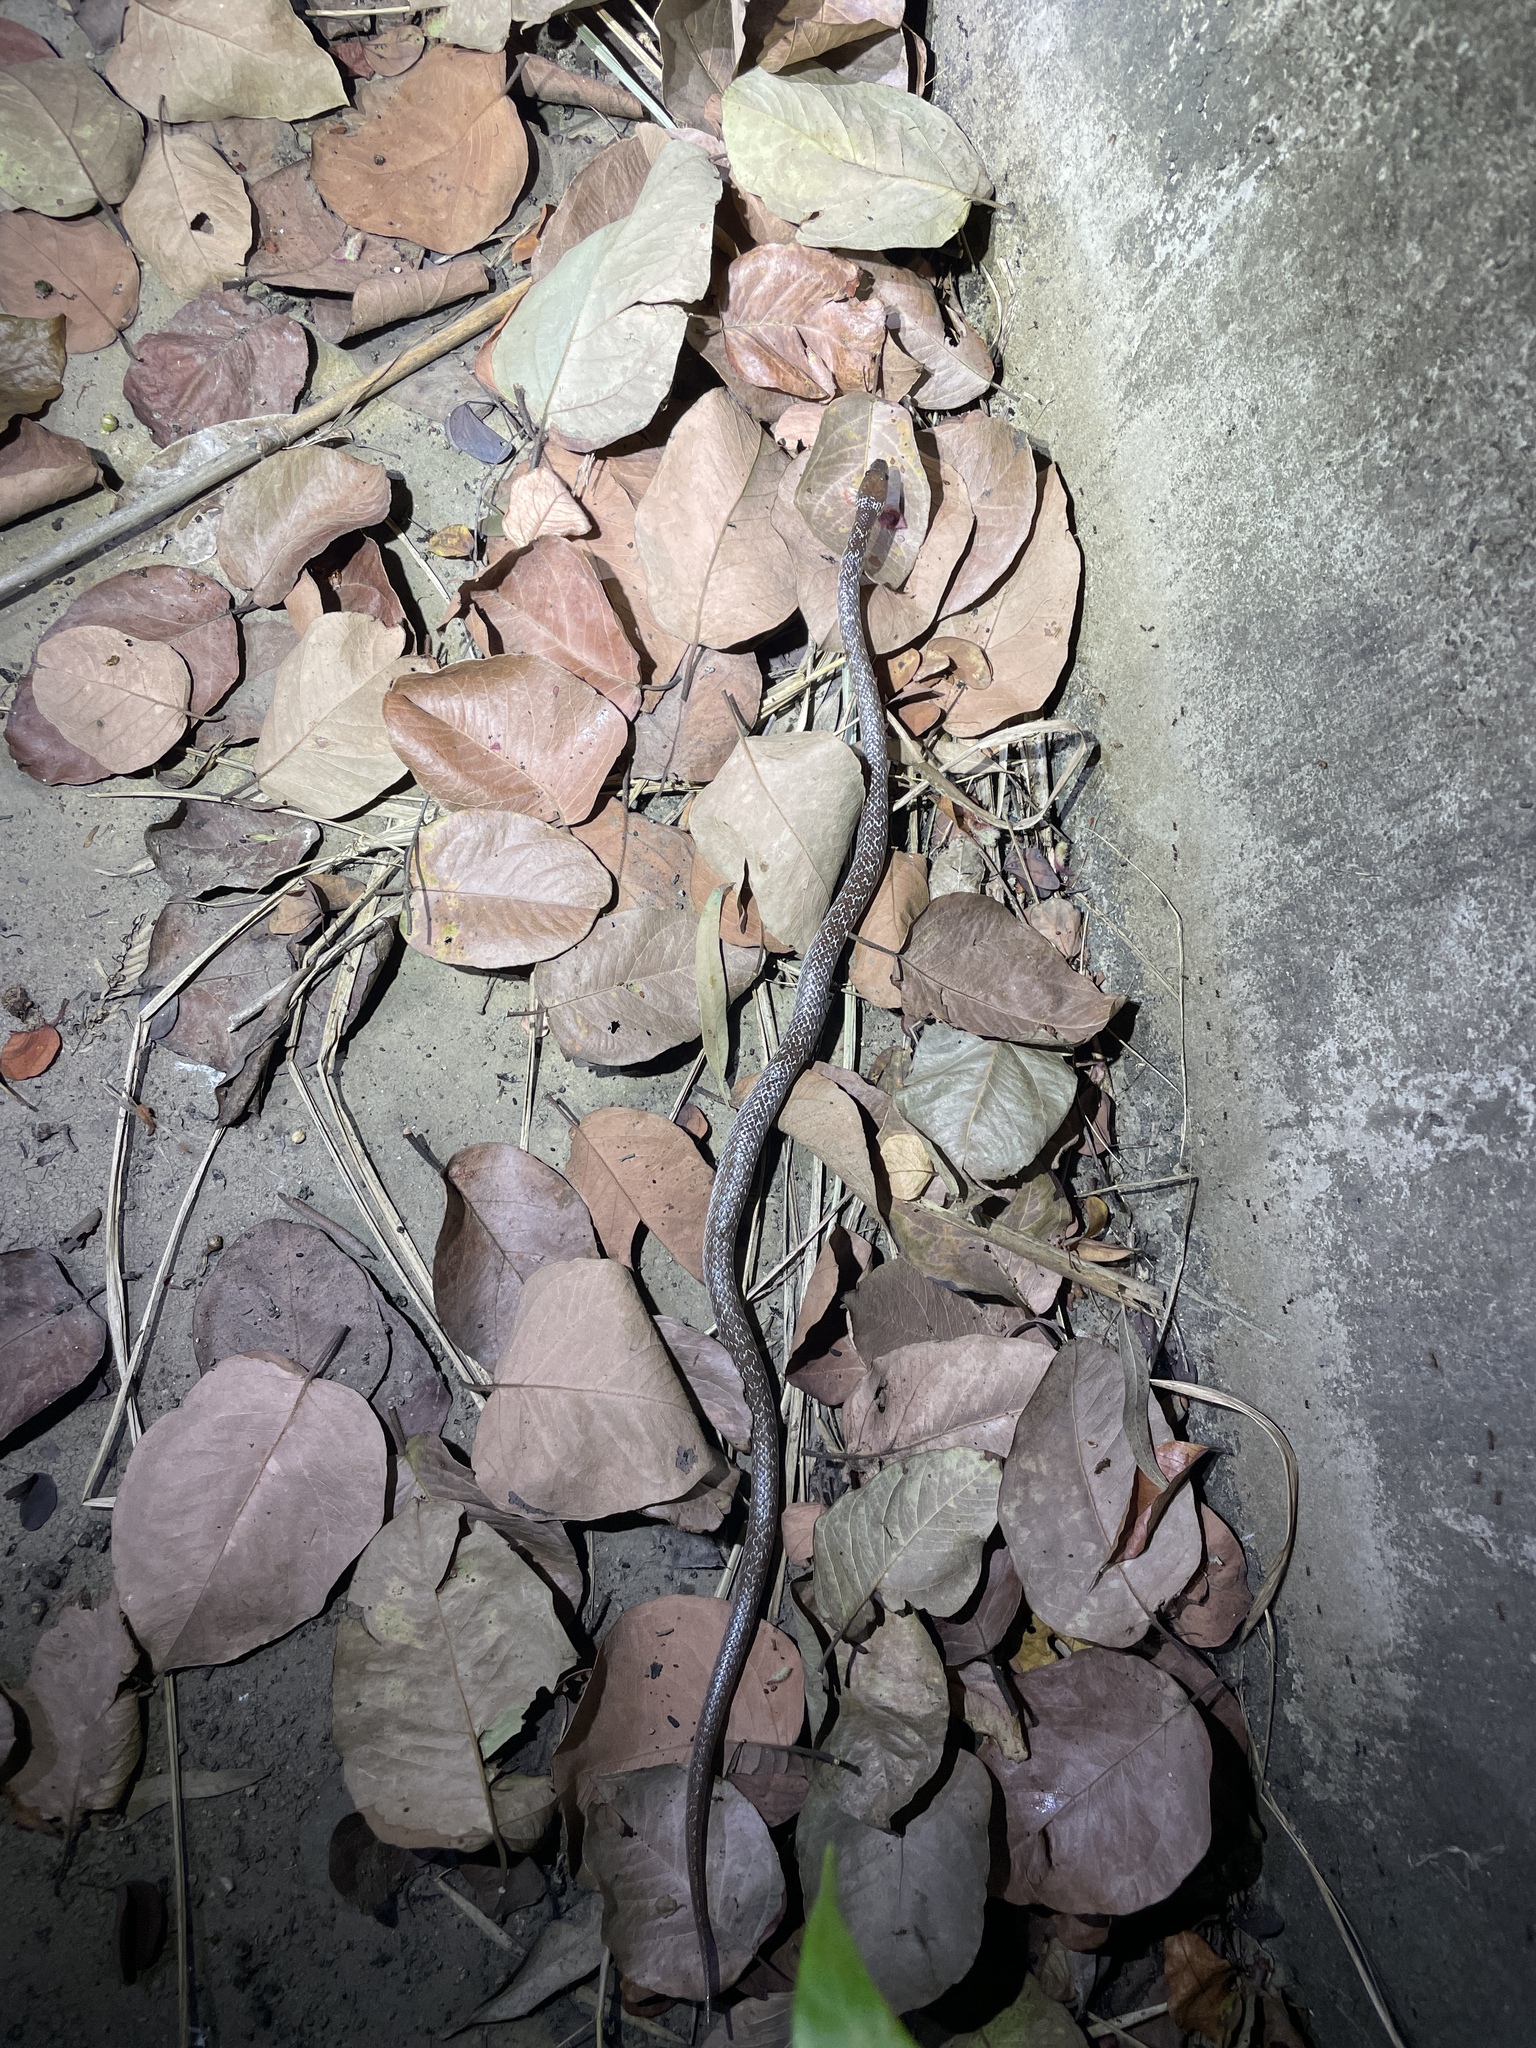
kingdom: Animalia
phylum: Chordata
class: Squamata
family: Colubridae
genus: Lycodon
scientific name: Lycodon capucinus
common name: Common wold snake/house snake
